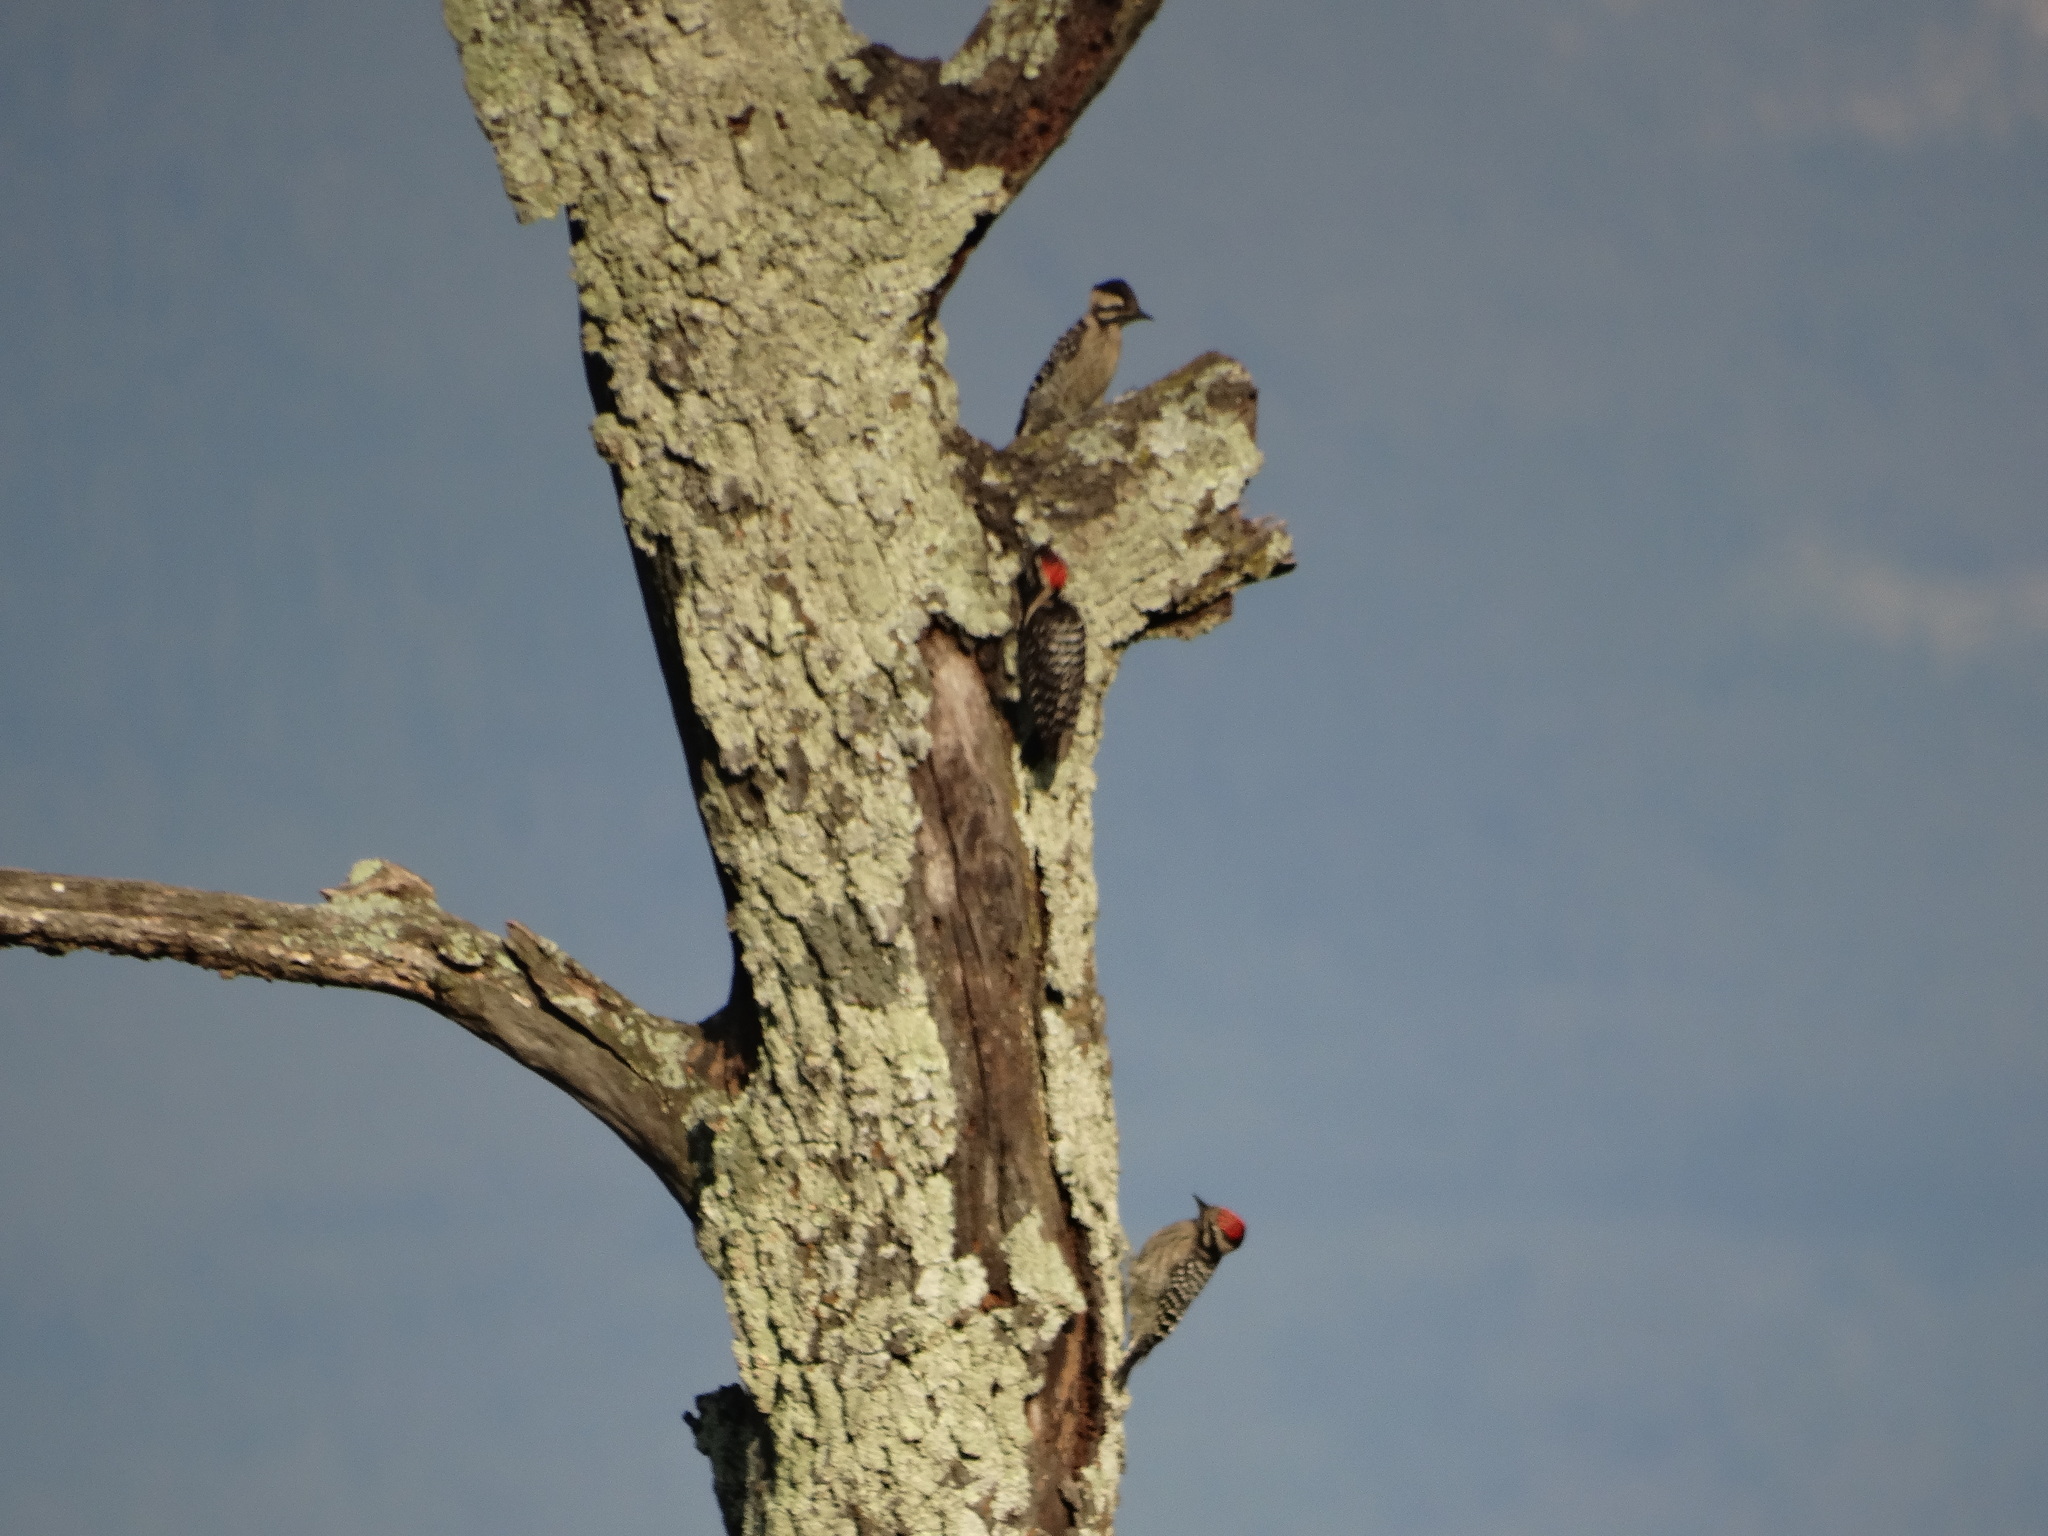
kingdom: Animalia
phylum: Chordata
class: Aves
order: Piciformes
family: Picidae
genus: Dryobates
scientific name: Dryobates scalaris
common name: Ladder-backed woodpecker
